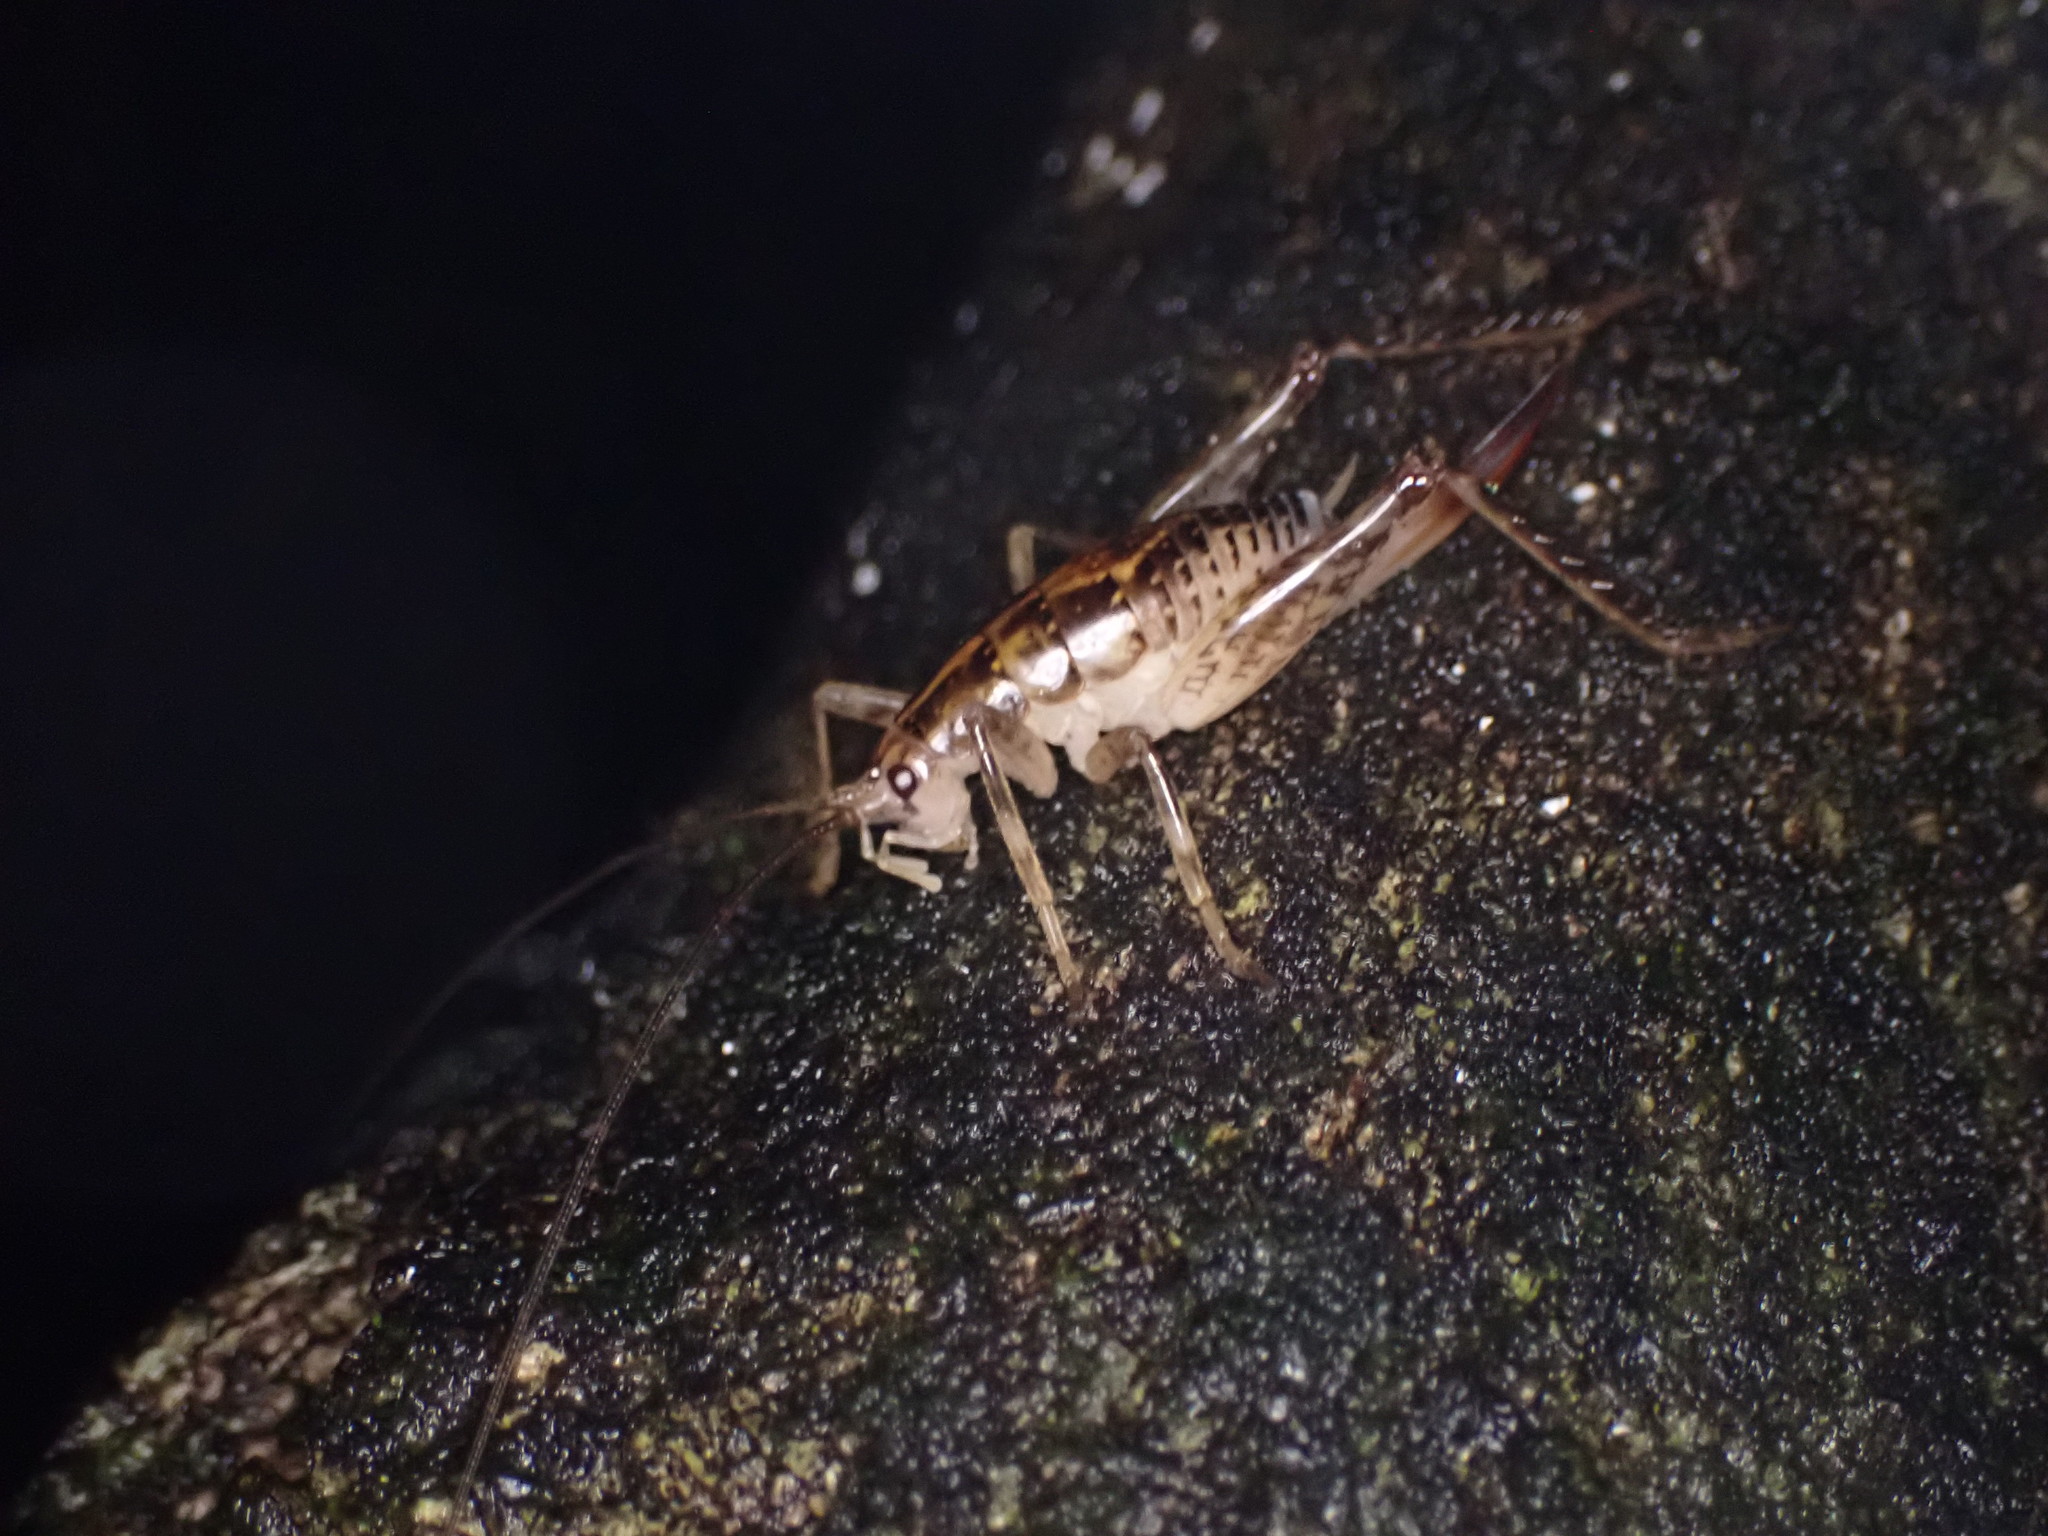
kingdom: Animalia
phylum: Arthropoda
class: Insecta
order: Orthoptera
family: Rhaphidophoridae
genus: Talitropsis
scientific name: Talitropsis sedilloti
